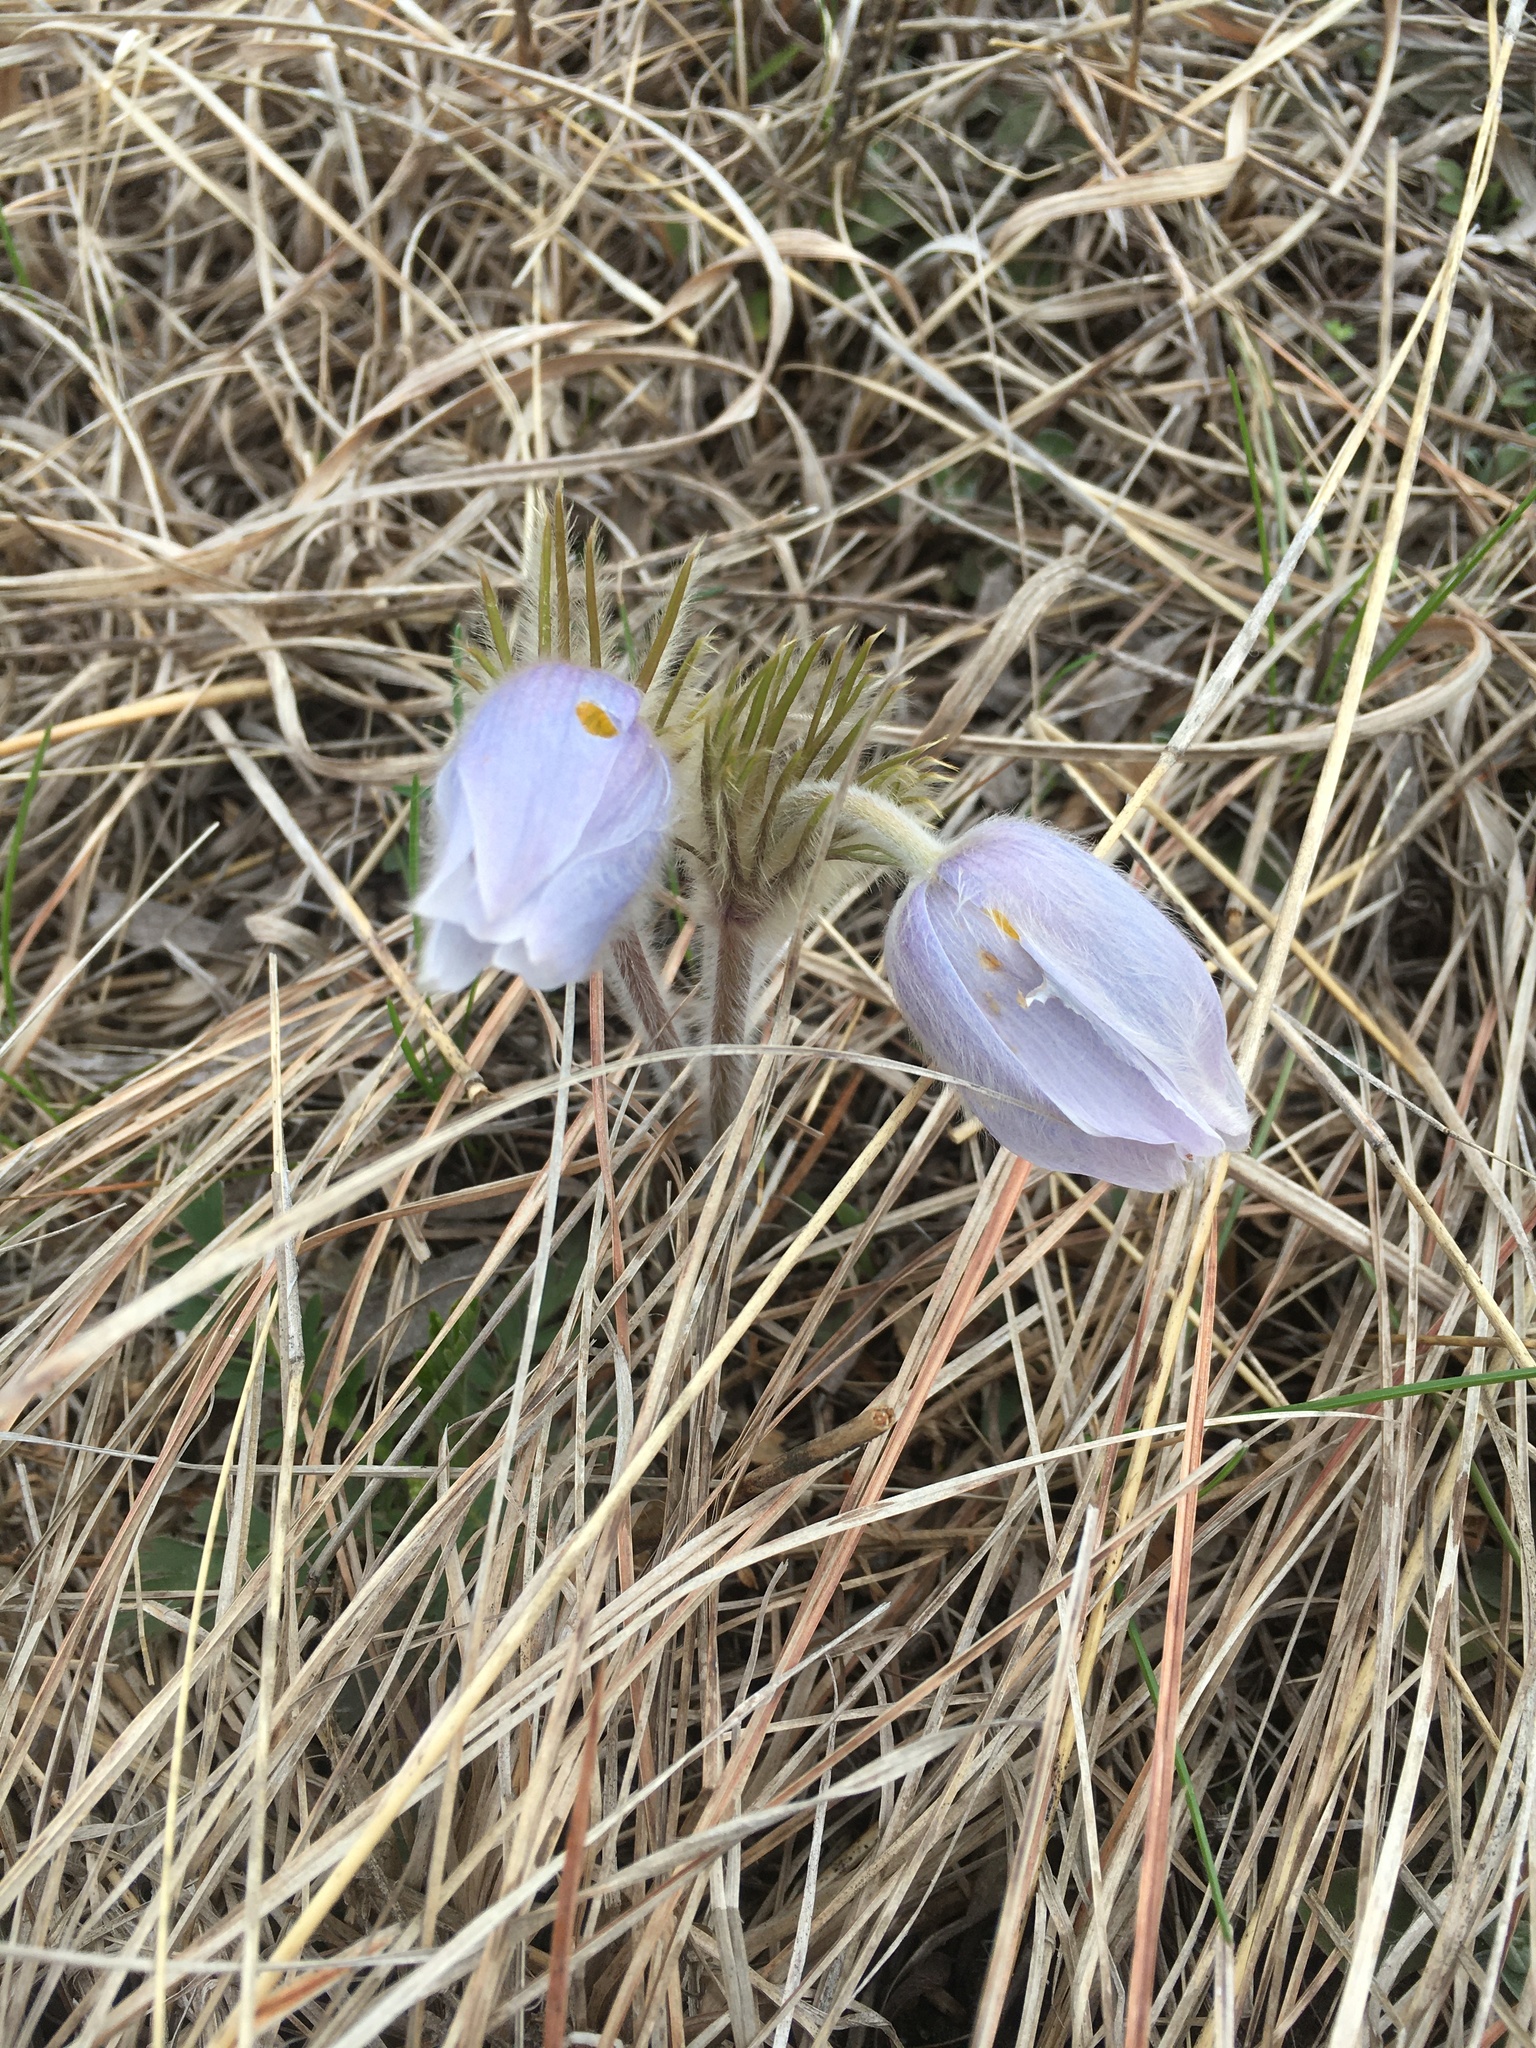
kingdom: Plantae
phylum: Tracheophyta
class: Magnoliopsida
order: Ranunculales
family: Ranunculaceae
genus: Pulsatilla
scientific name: Pulsatilla nuttalliana
